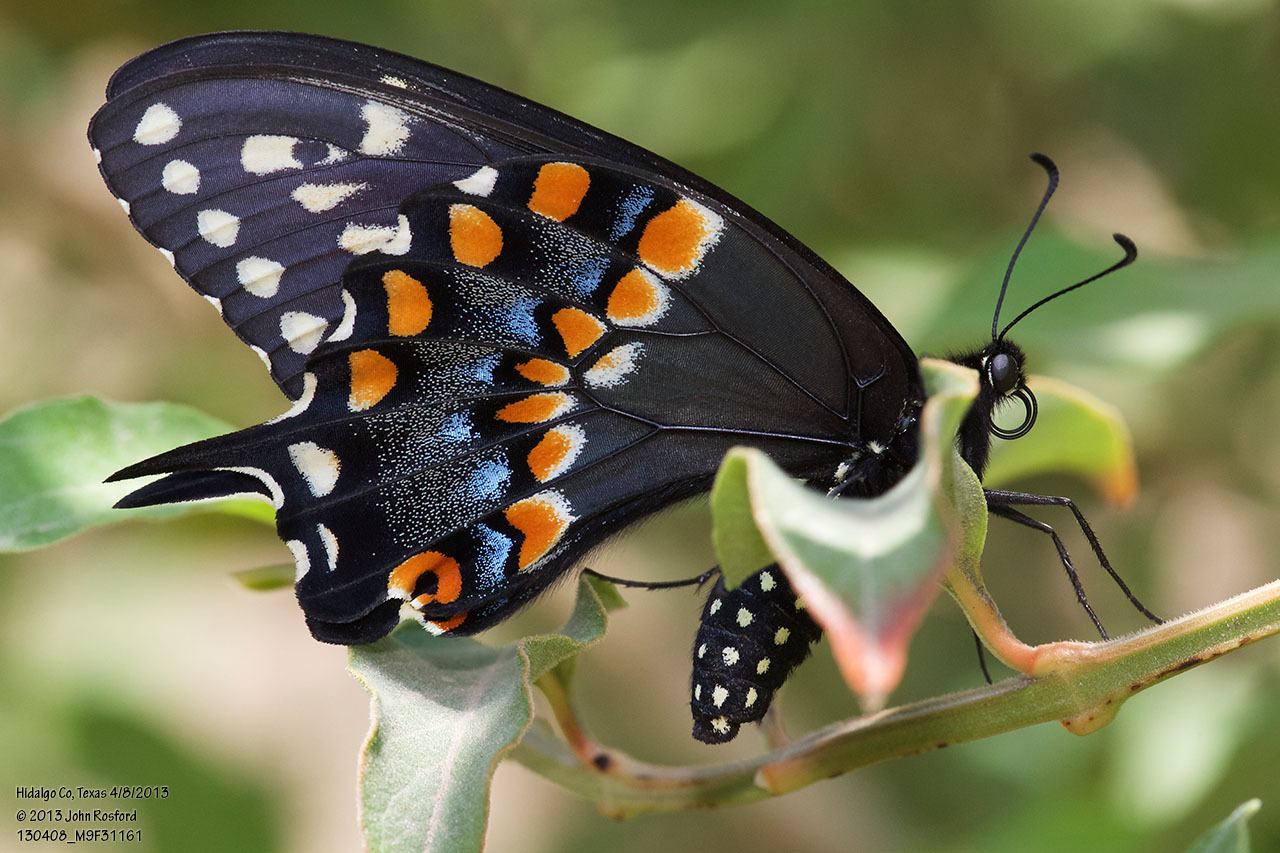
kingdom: Animalia
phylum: Arthropoda
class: Insecta
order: Lepidoptera
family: Papilionidae
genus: Papilio
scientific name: Papilio polyxenes
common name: Black swallowtail
